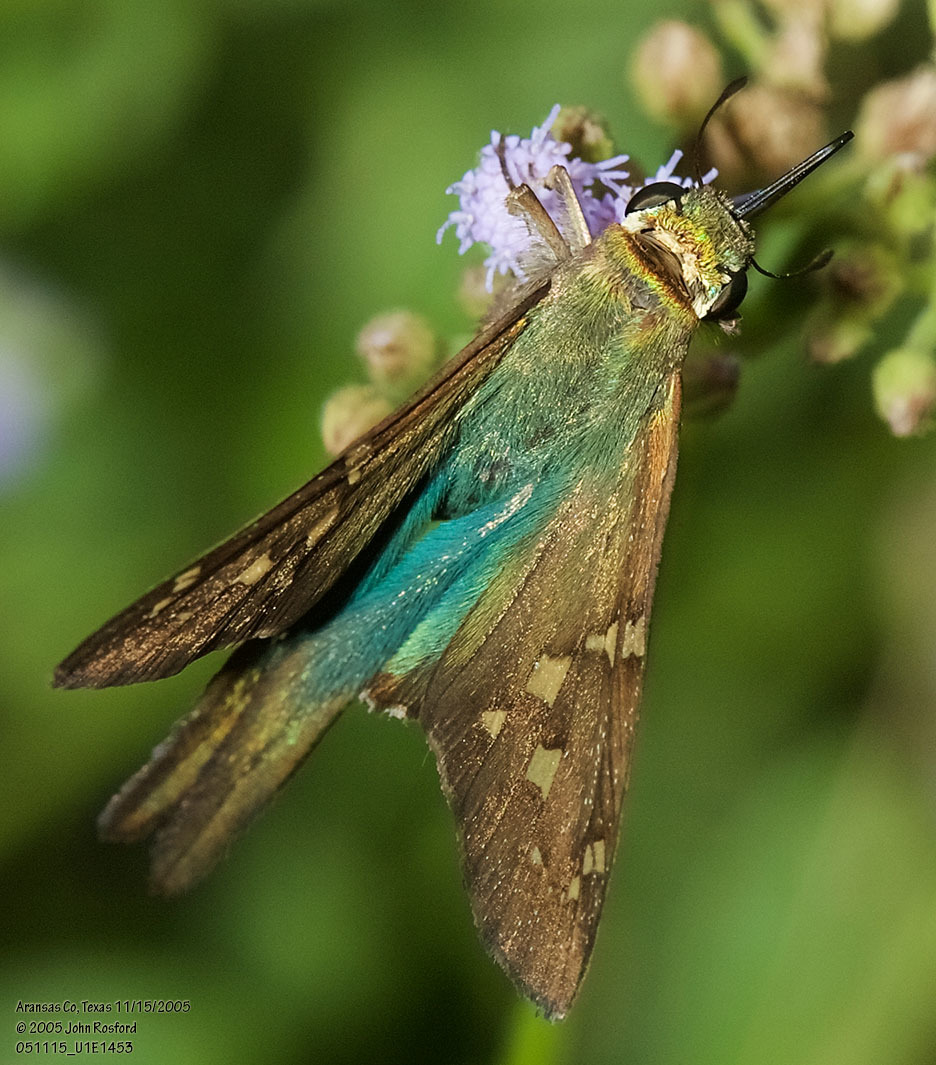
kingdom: Animalia
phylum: Arthropoda
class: Insecta
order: Lepidoptera
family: Hesperiidae
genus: Urbanus
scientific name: Urbanus proteus
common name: Long-tailed skipper
